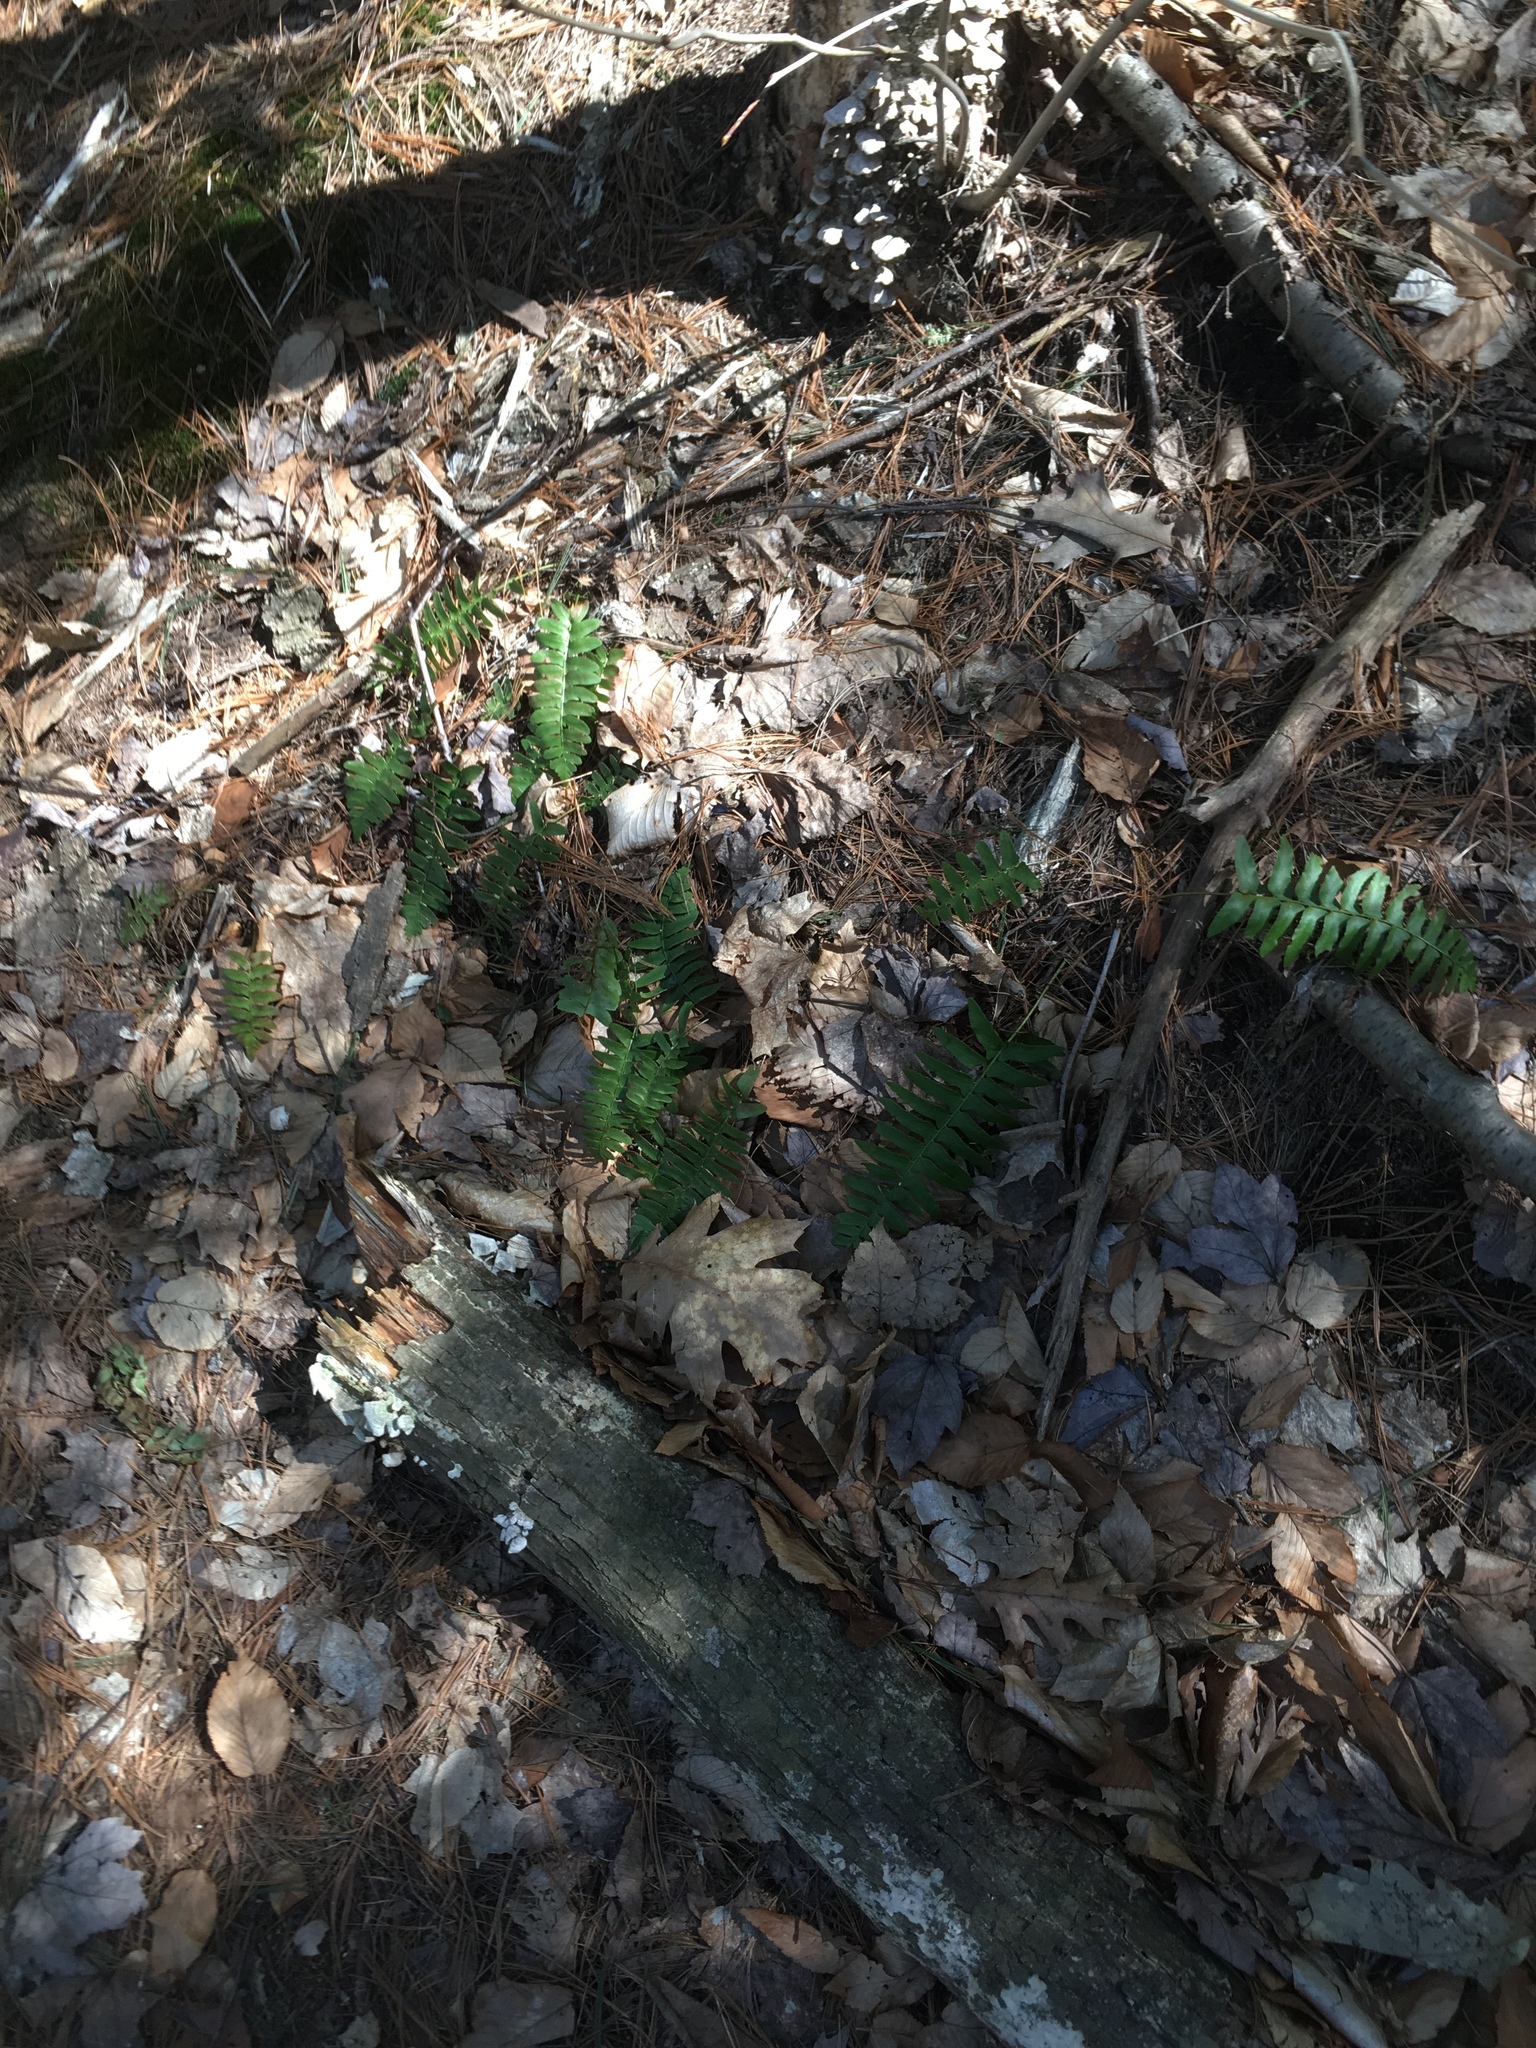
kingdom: Plantae
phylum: Tracheophyta
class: Polypodiopsida
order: Polypodiales
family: Dryopteridaceae
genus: Polystichum
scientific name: Polystichum acrostichoides
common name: Christmas fern
